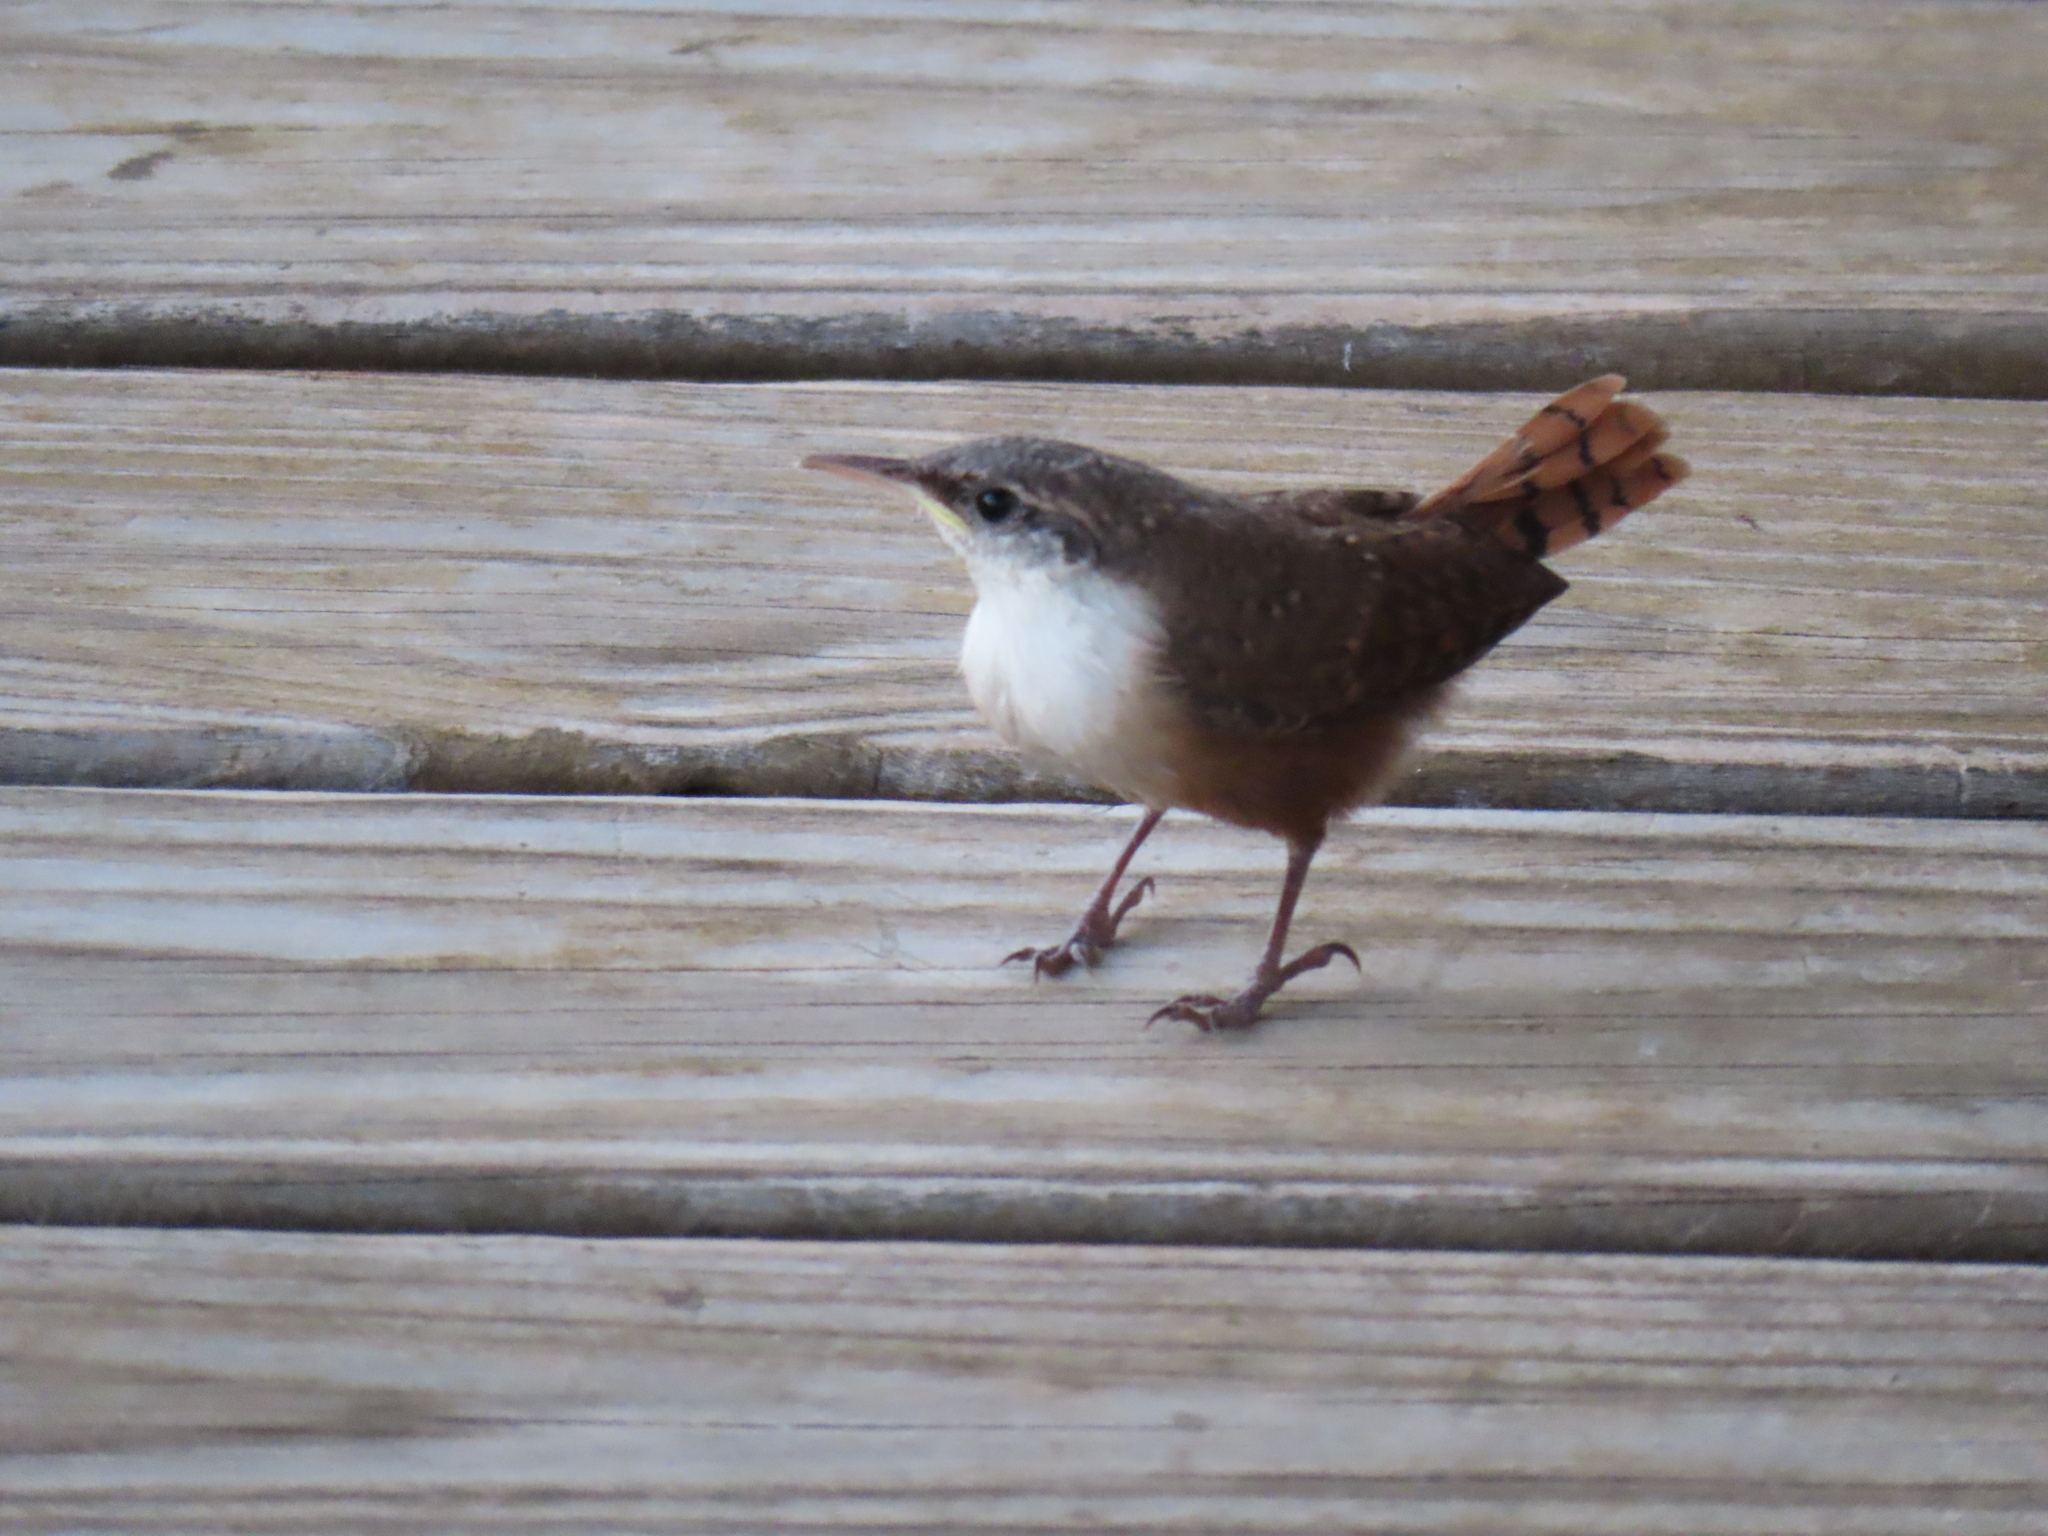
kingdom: Animalia
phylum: Chordata
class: Aves
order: Passeriformes
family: Troglodytidae
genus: Catherpes
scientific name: Catherpes mexicanus
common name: Canyon wren
